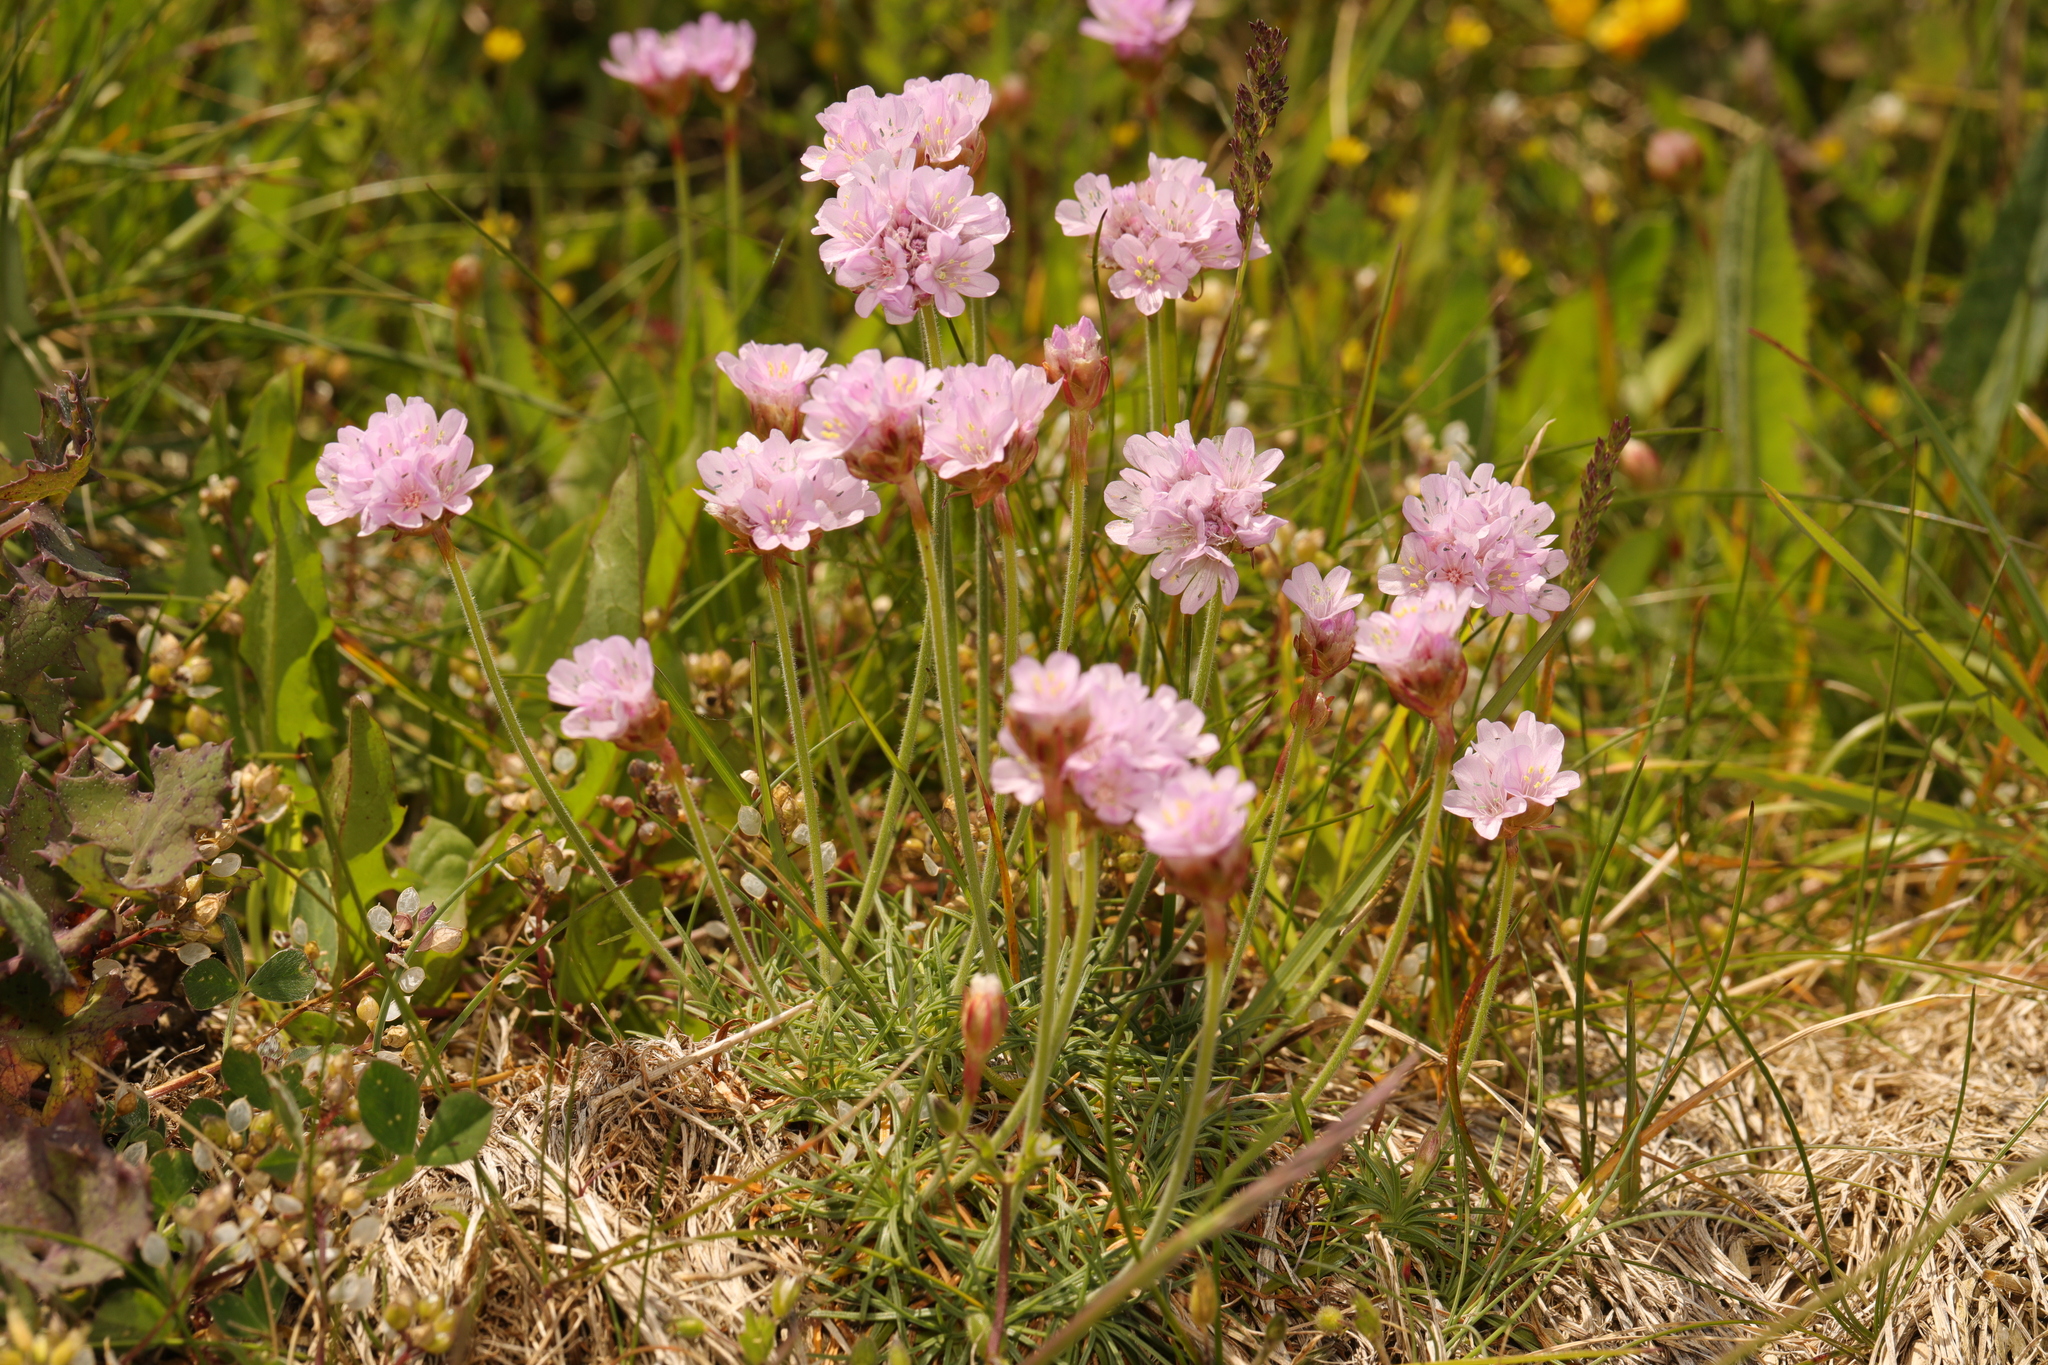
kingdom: Plantae
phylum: Tracheophyta
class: Magnoliopsida
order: Caryophyllales
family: Plumbaginaceae
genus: Armeria
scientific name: Armeria maritima
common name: Thrift
